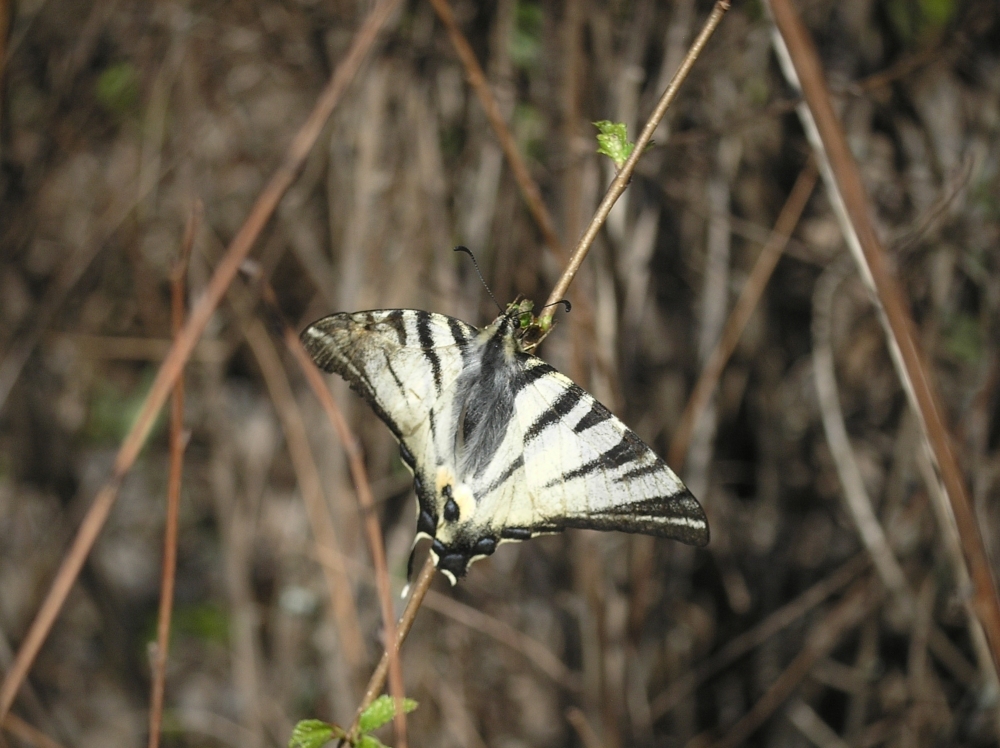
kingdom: Animalia
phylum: Arthropoda
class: Insecta
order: Lepidoptera
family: Papilionidae
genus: Iphiclides
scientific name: Iphiclides podalirius
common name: Scarce swallowtail
